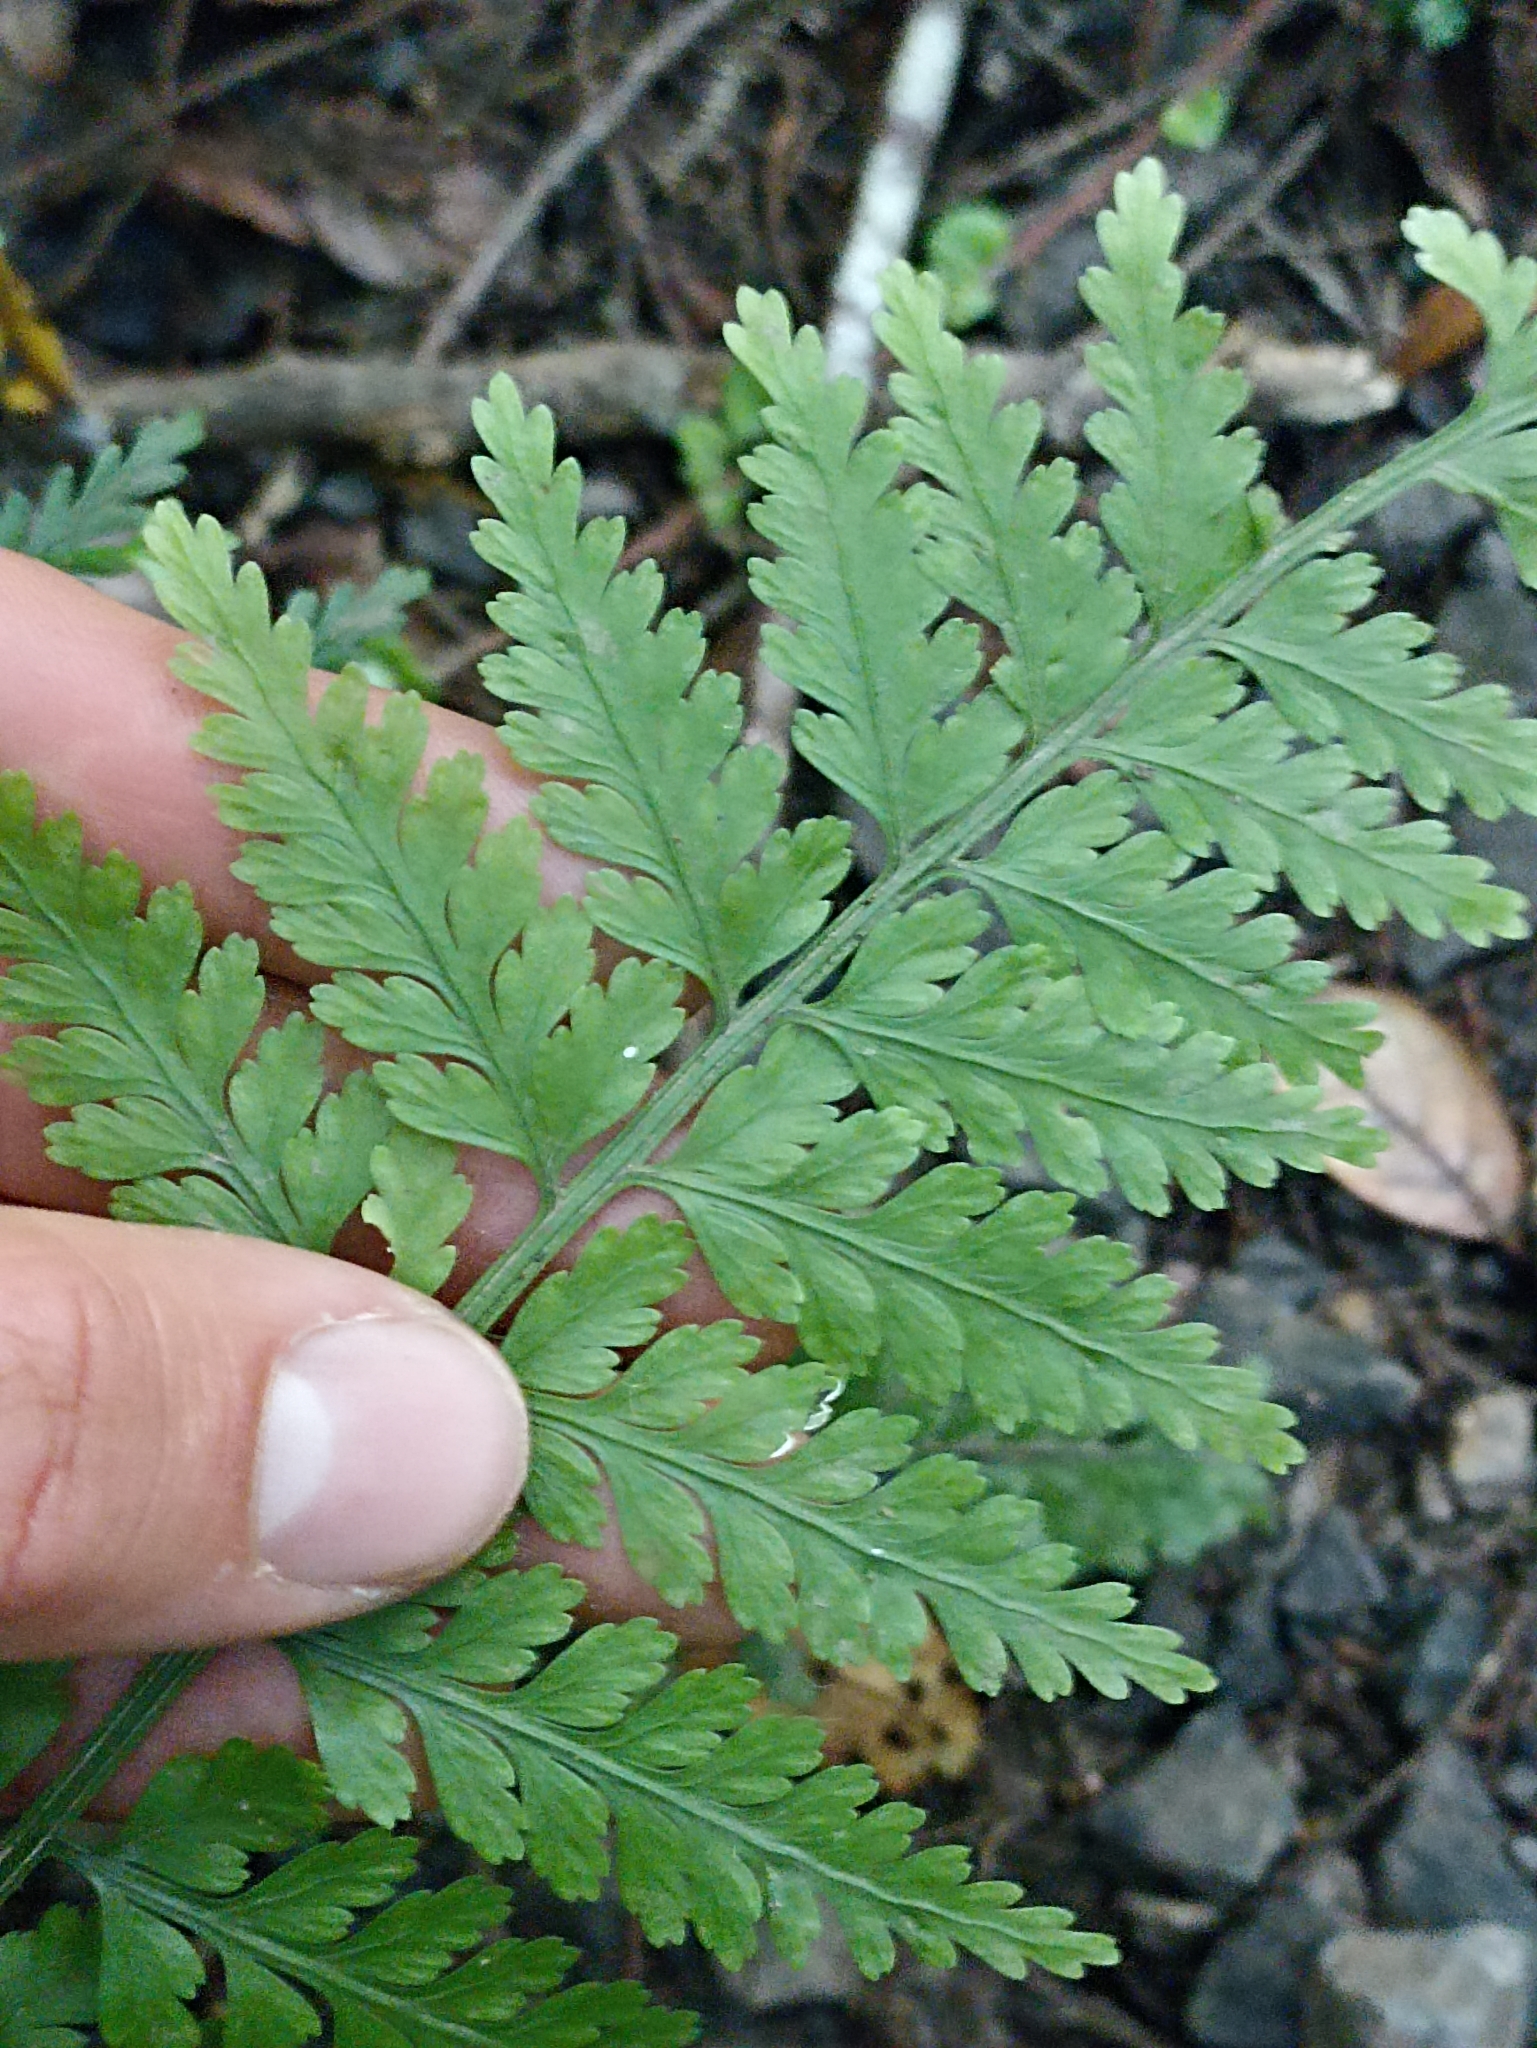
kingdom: Plantae
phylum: Tracheophyta
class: Polypodiopsida
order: Polypodiales
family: Aspleniaceae
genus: Asplenium
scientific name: Asplenium bulbiferum
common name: Mother fern
